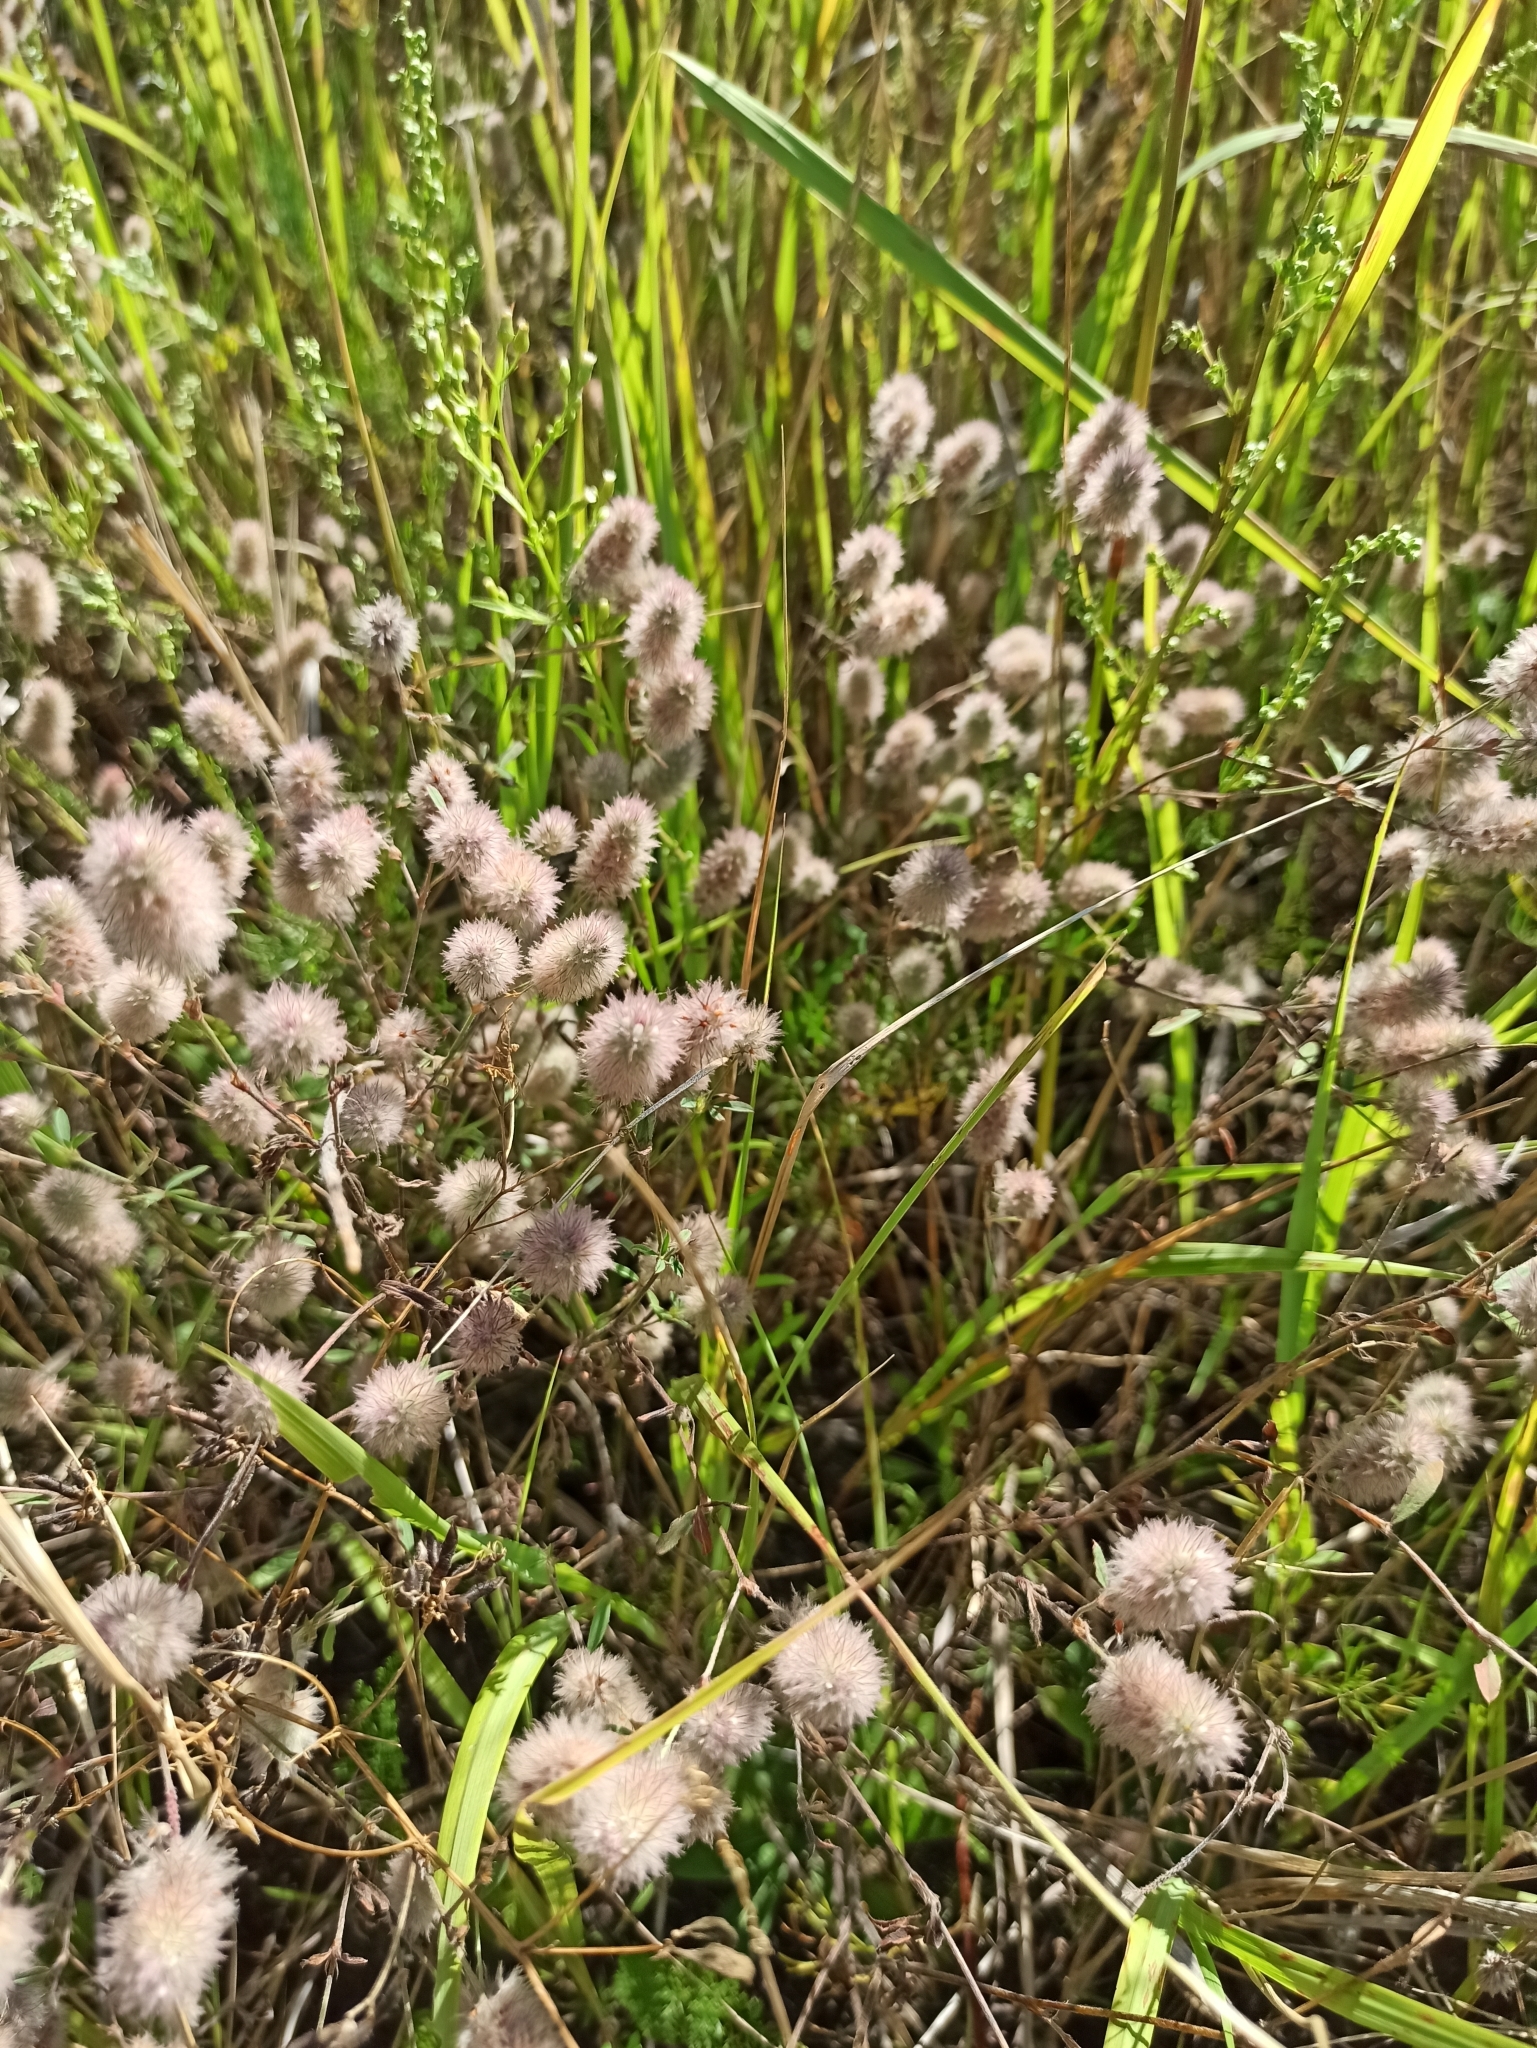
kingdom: Plantae
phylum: Tracheophyta
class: Magnoliopsida
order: Fabales
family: Fabaceae
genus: Trifolium
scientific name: Trifolium arvense
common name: Hare's-foot clover
